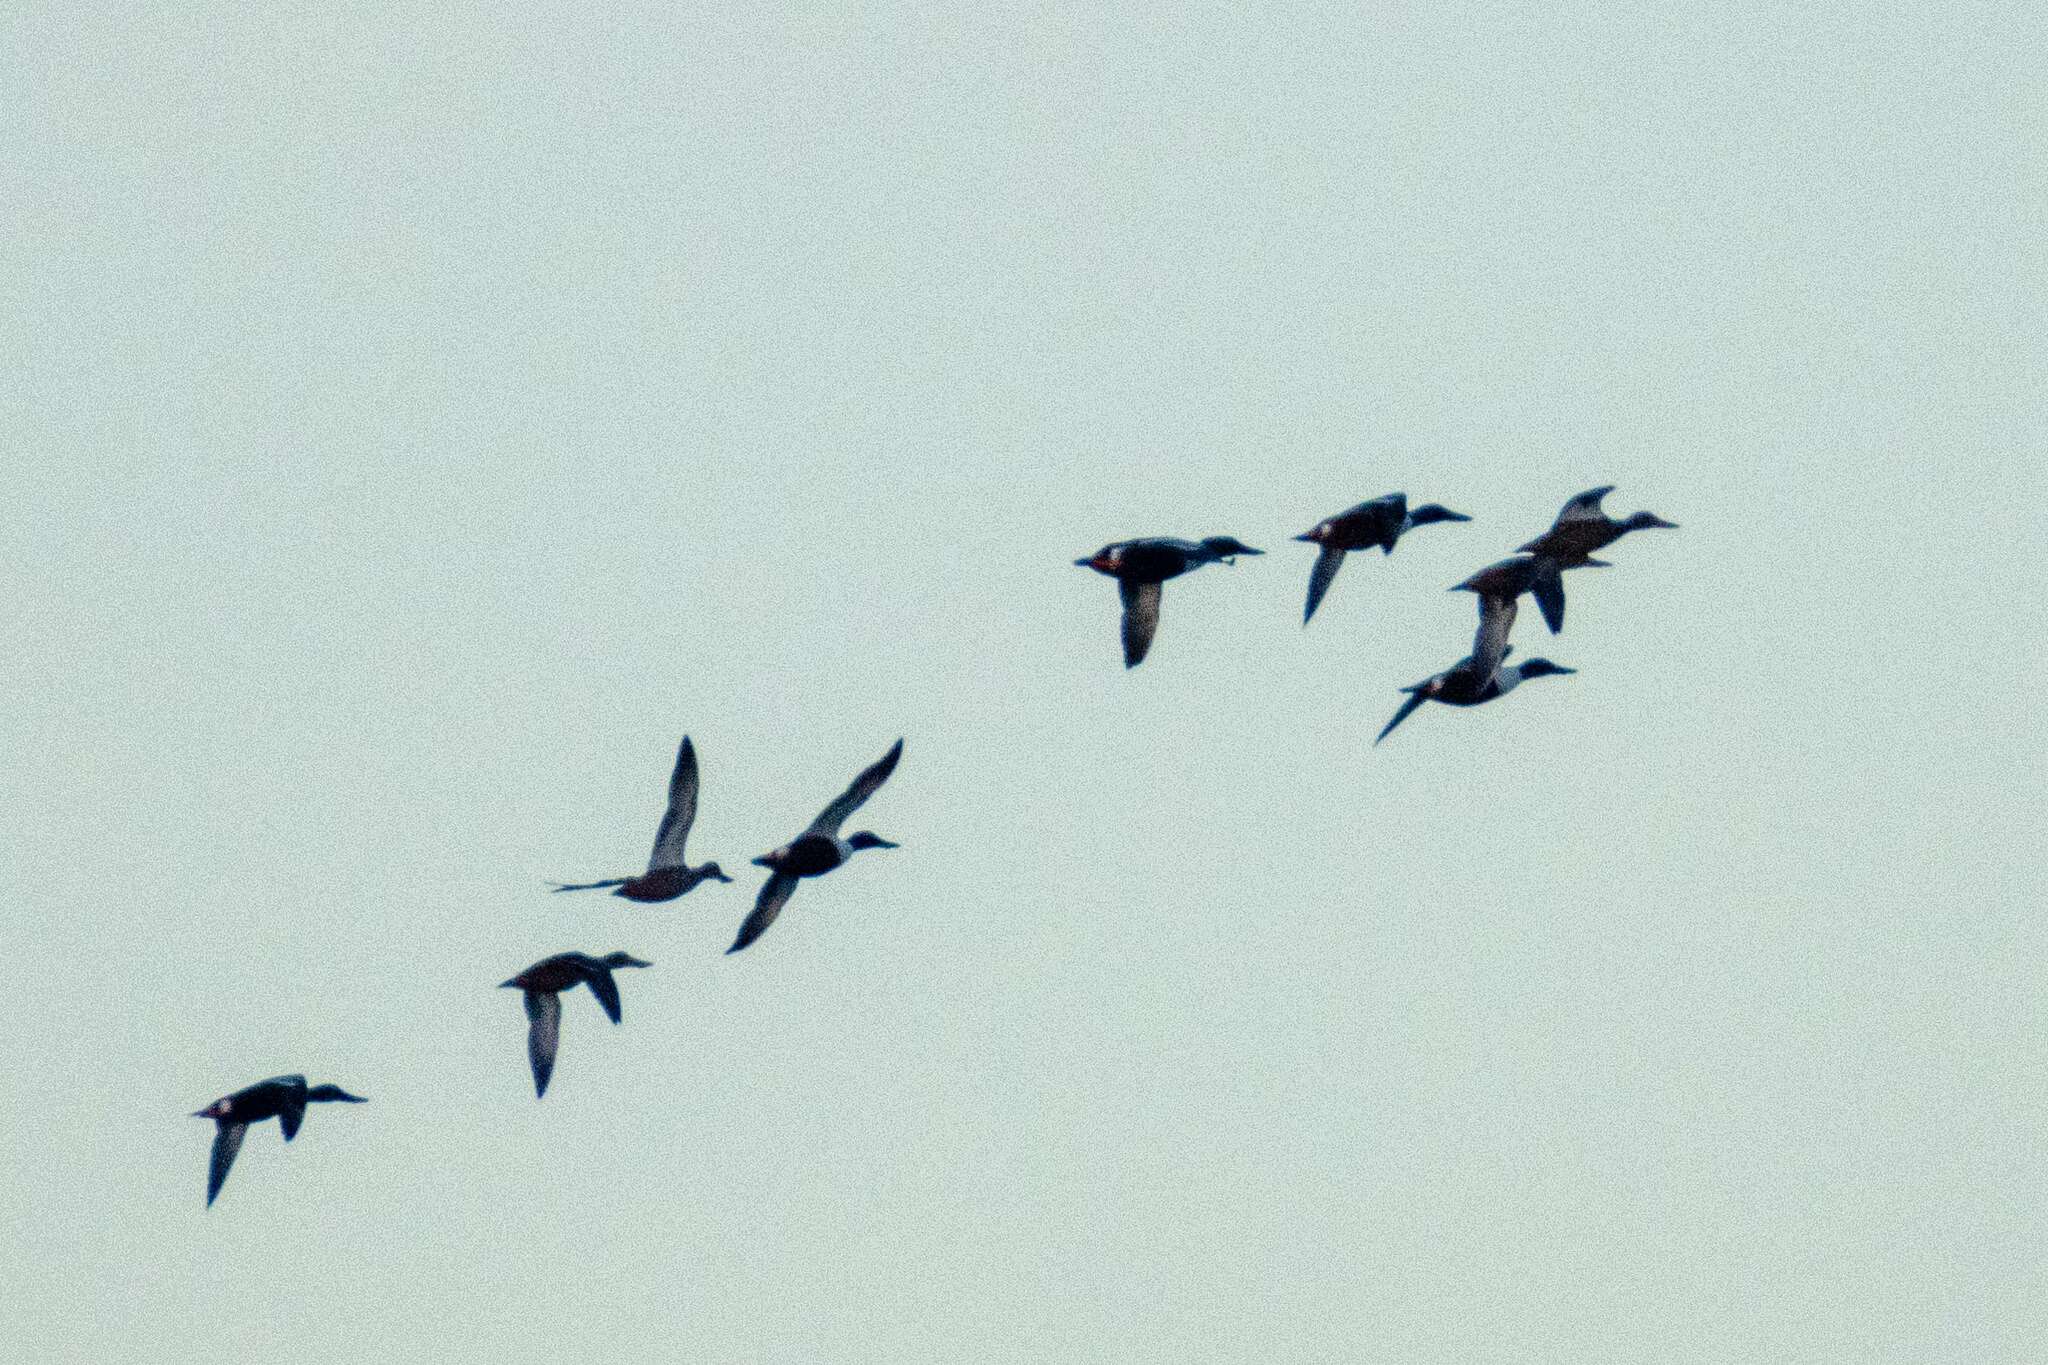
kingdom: Animalia
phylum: Chordata
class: Aves
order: Anseriformes
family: Anatidae
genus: Spatula
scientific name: Spatula clypeata
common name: Northern shoveler
